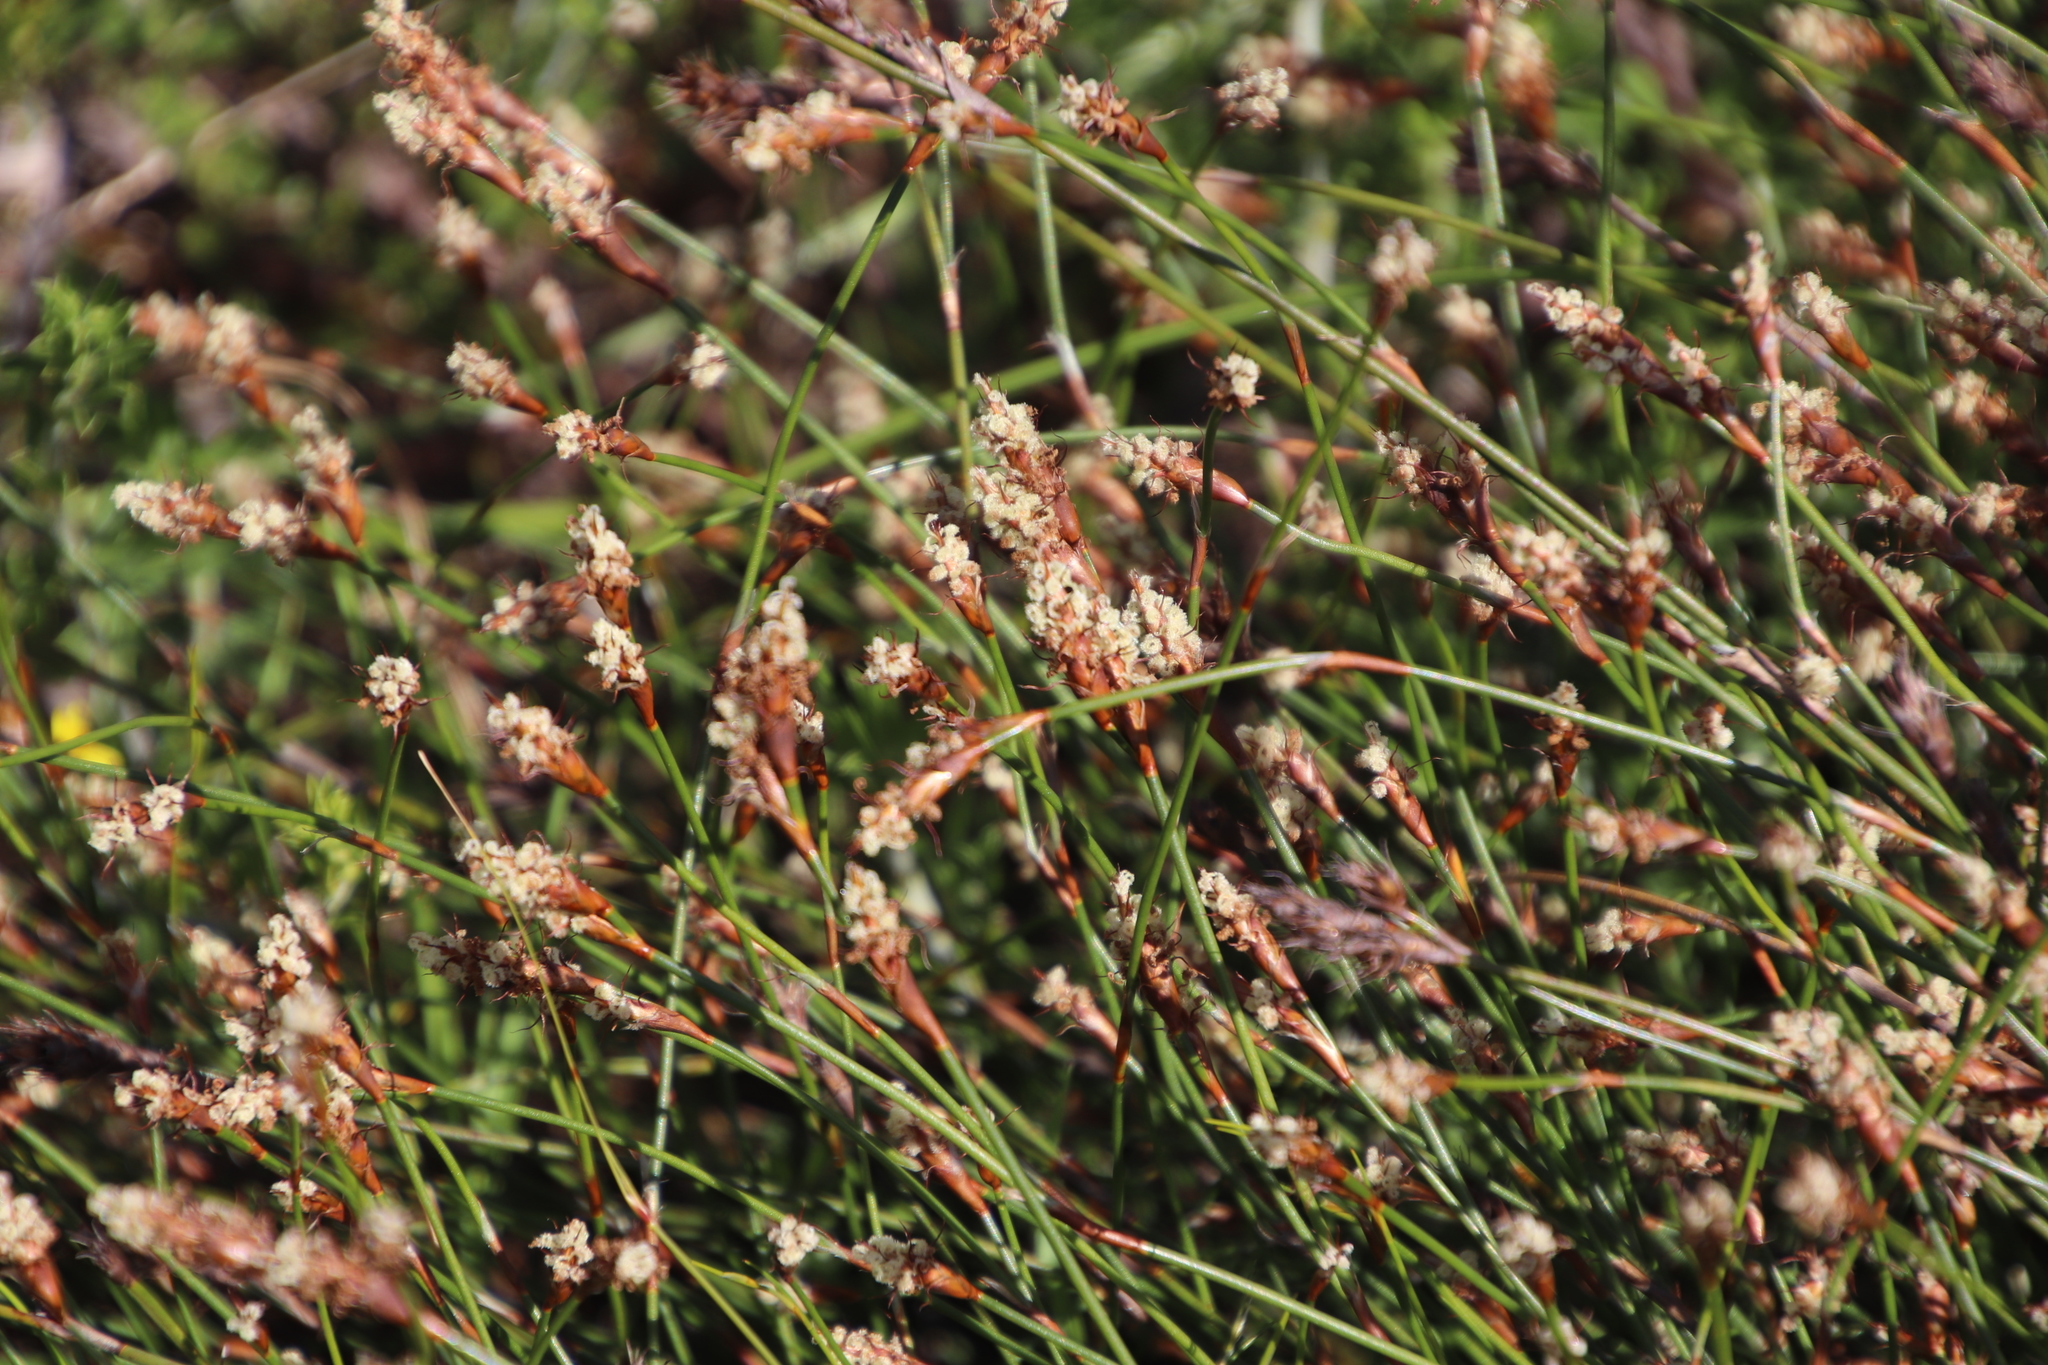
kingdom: Plantae
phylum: Tracheophyta
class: Liliopsida
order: Poales
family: Restionaceae
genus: Restio
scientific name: Restio capensis
